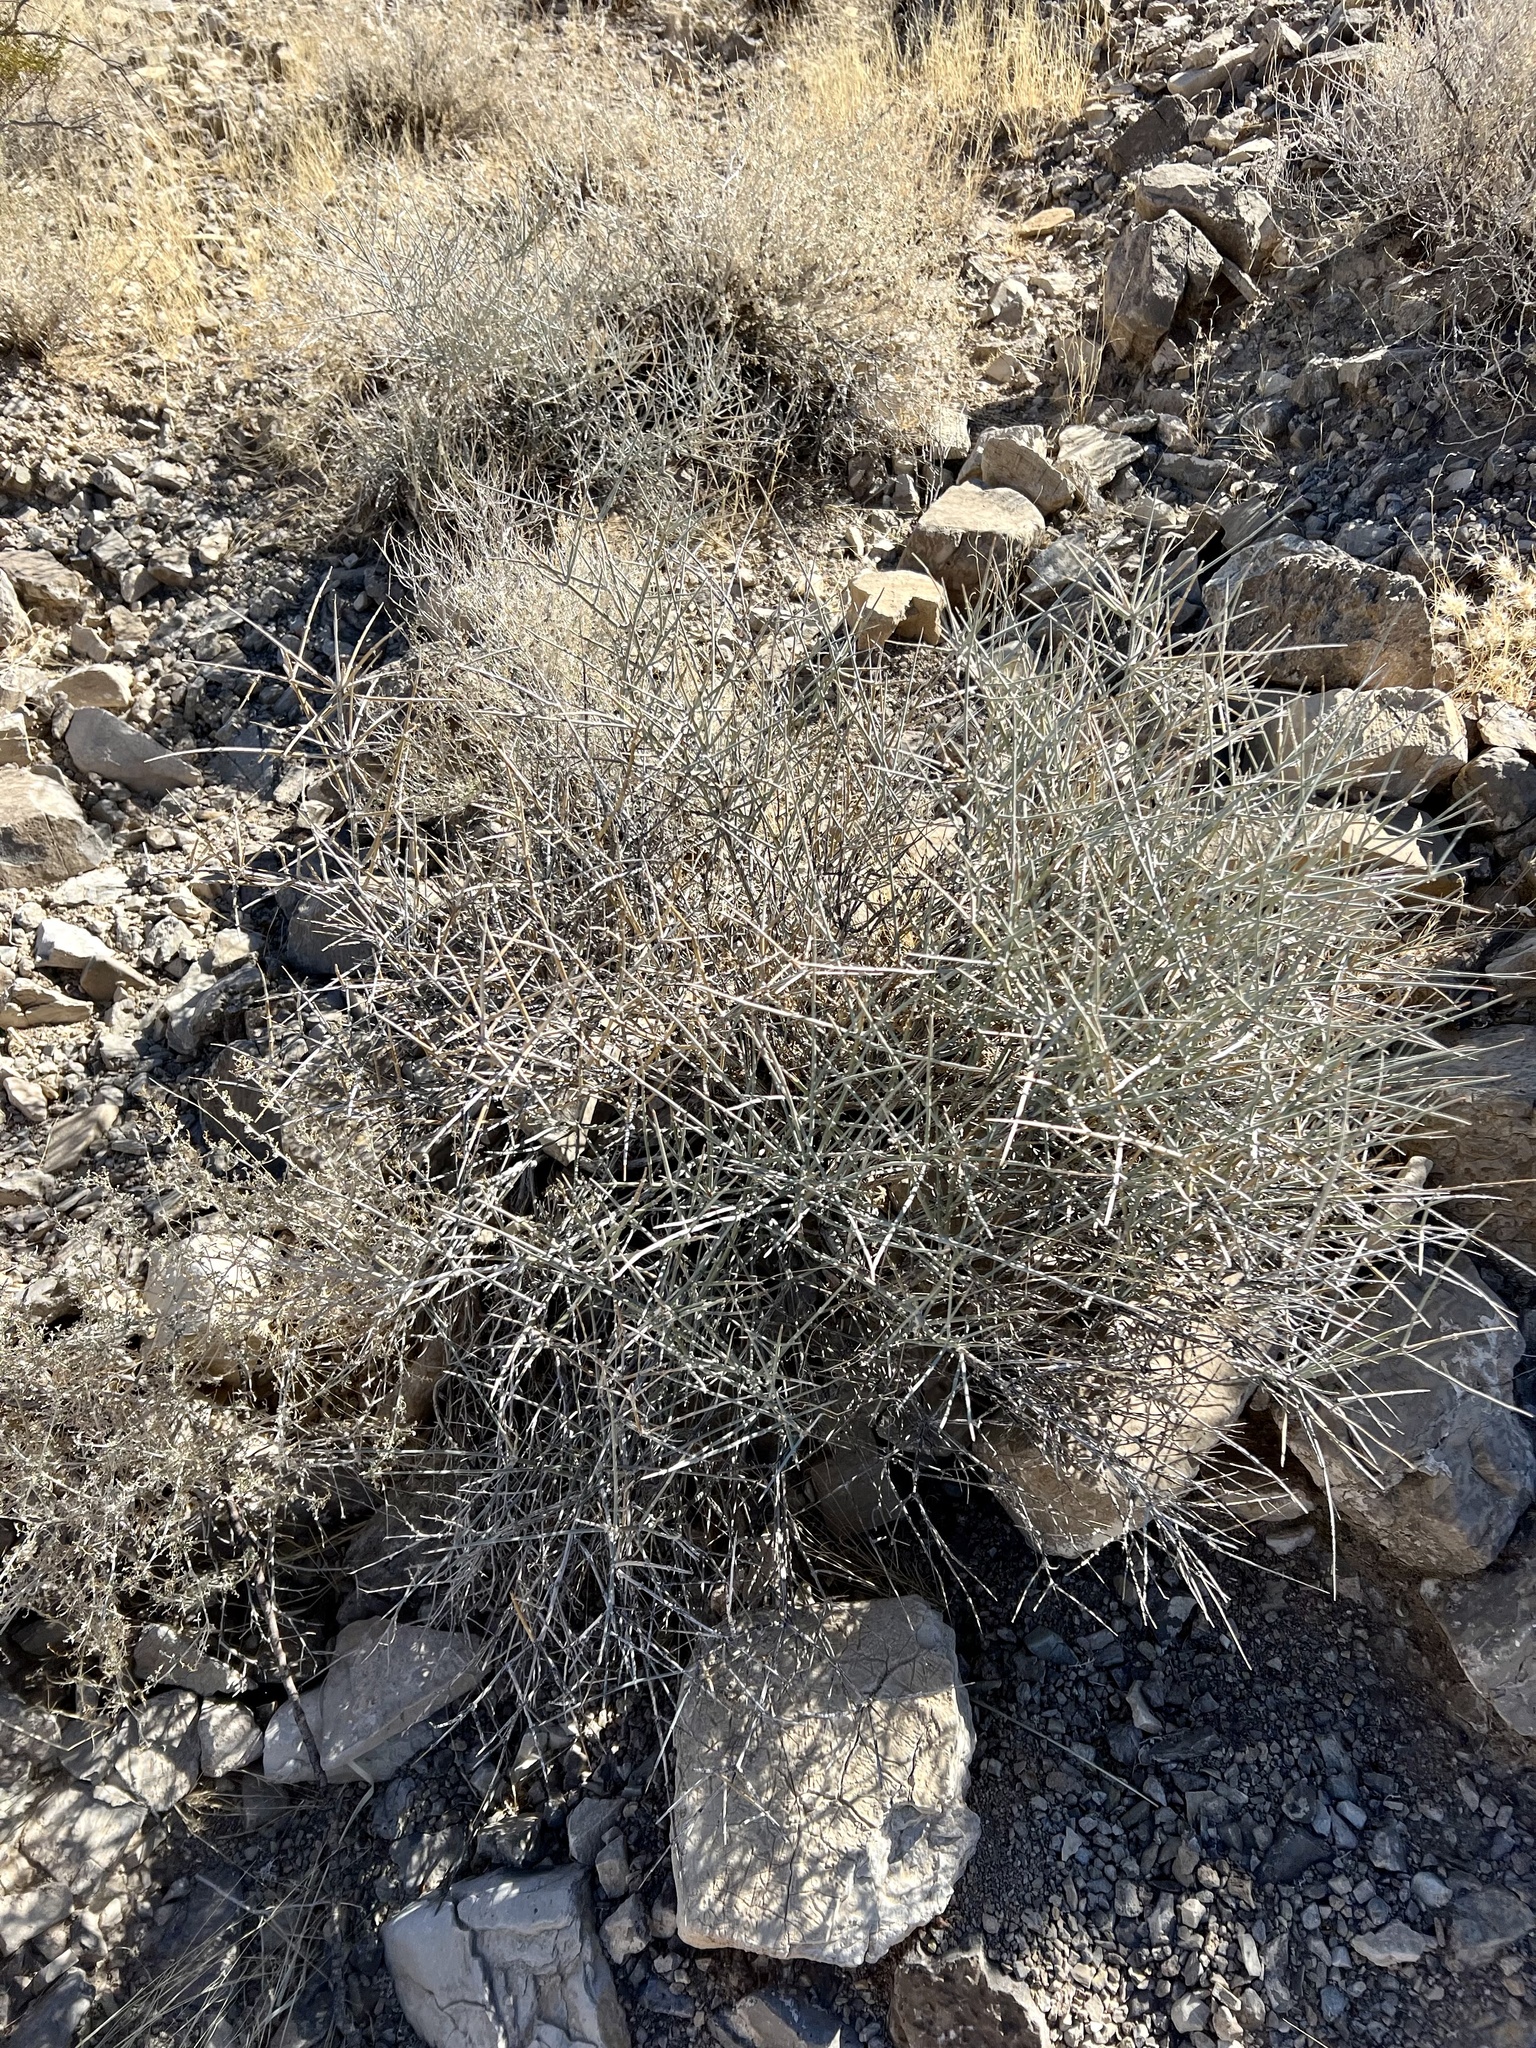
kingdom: Plantae
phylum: Tracheophyta
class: Gnetopsida
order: Ephedrales
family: Ephedraceae
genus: Ephedra
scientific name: Ephedra nevadensis
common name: Gray ephedra
